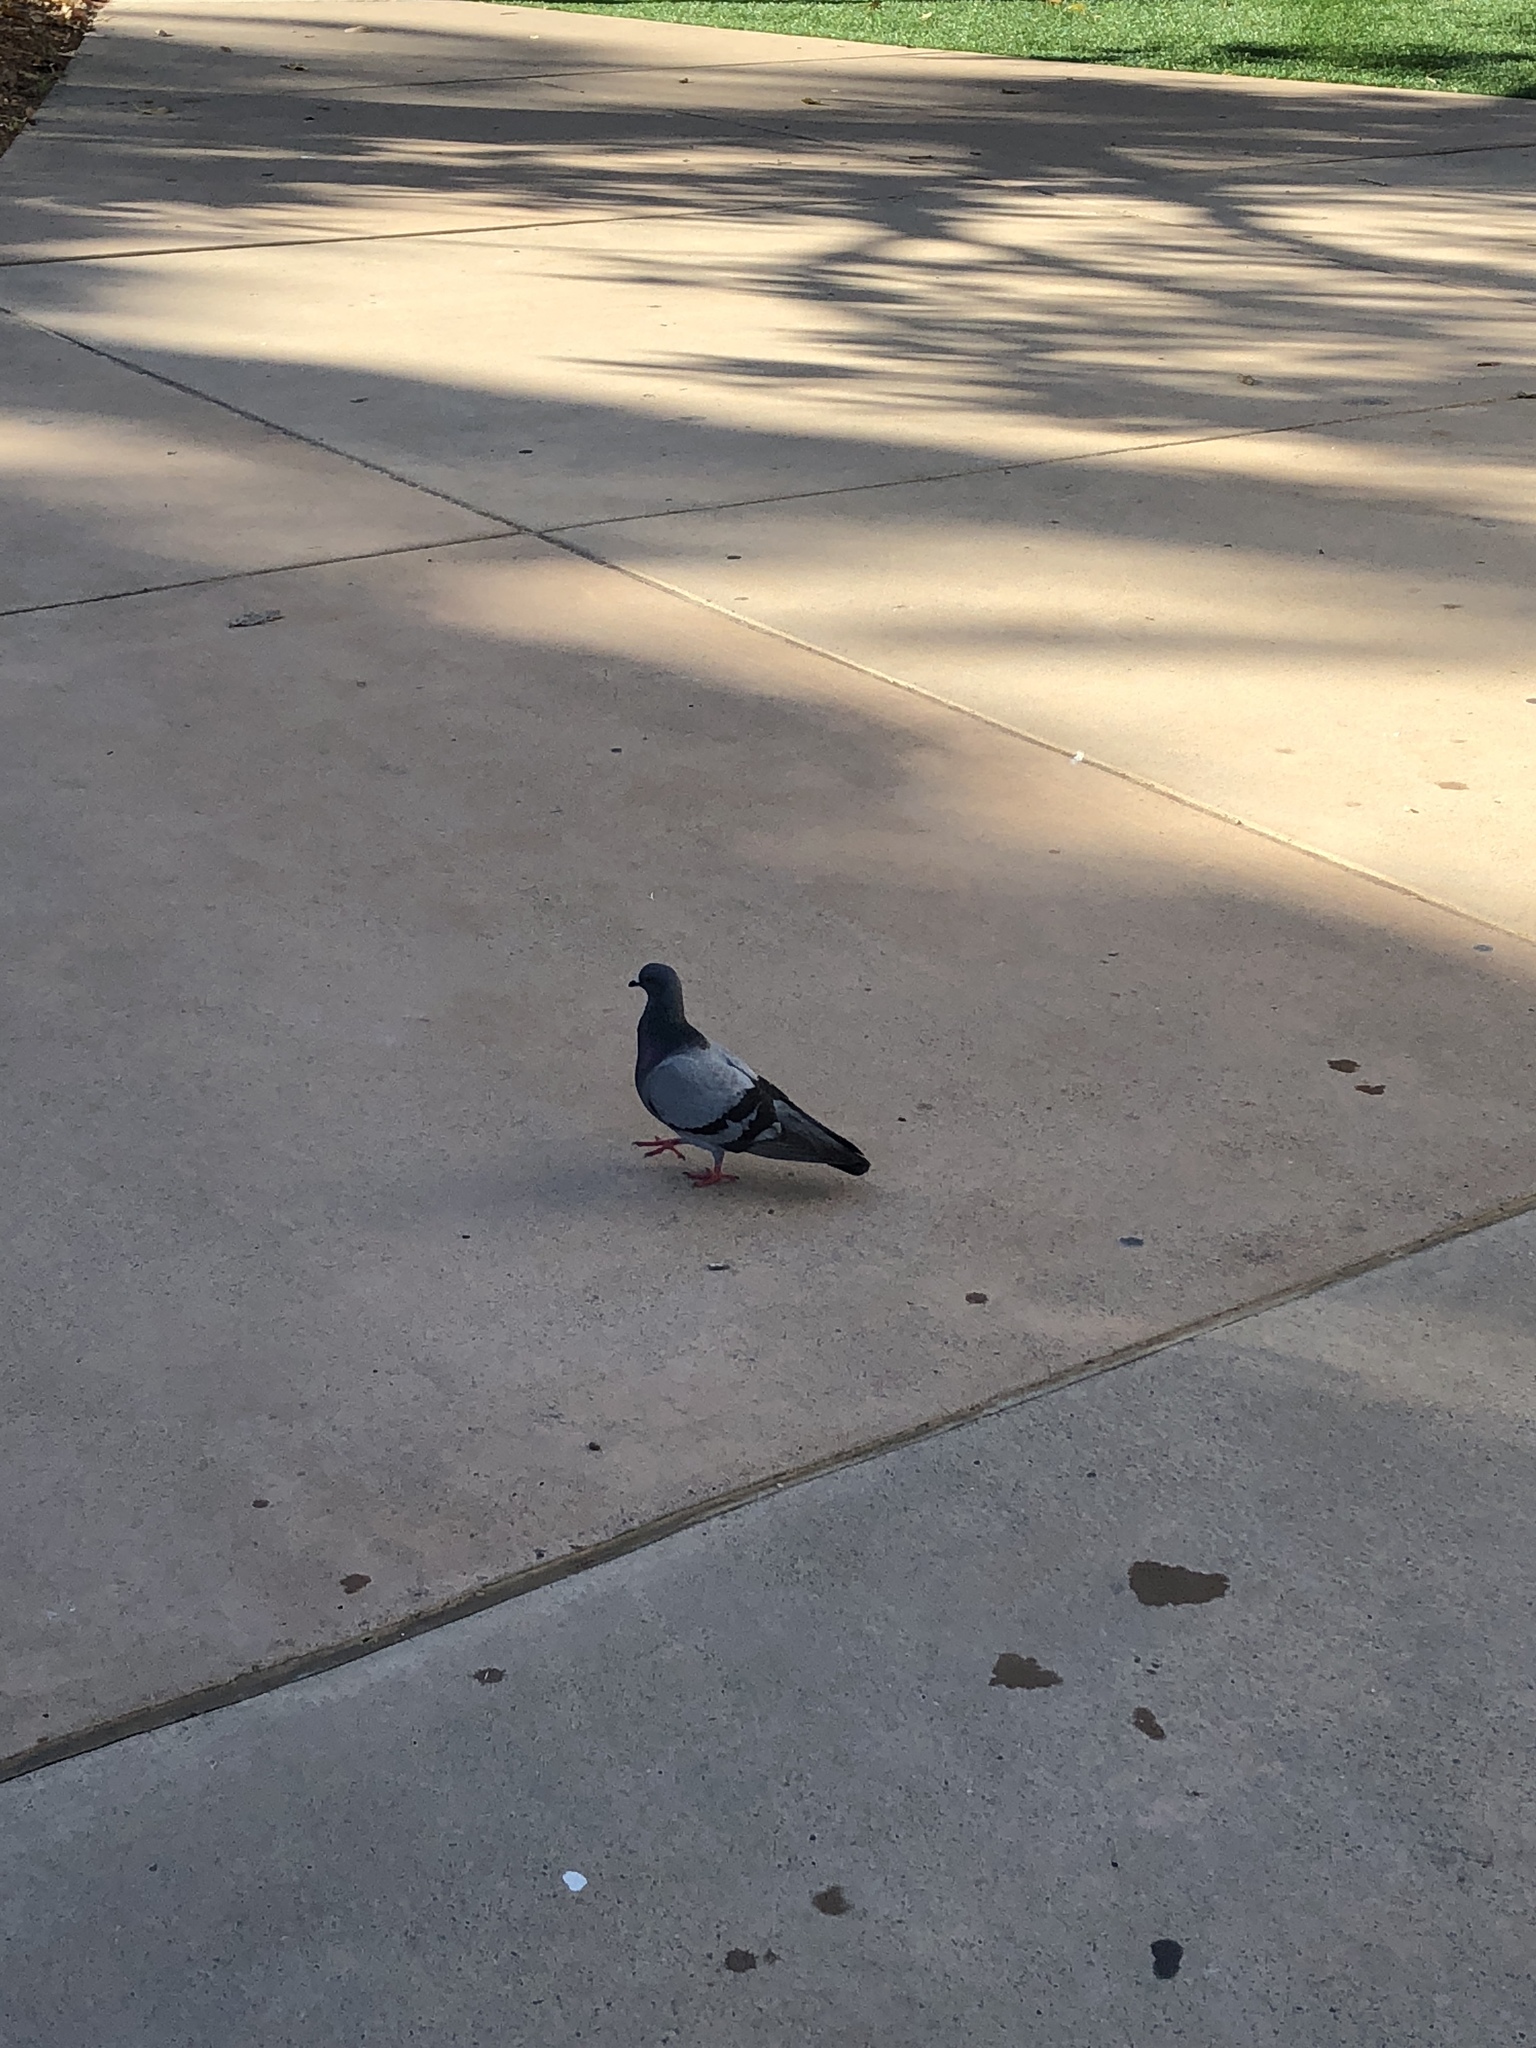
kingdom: Animalia
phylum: Chordata
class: Aves
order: Columbiformes
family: Columbidae
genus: Columba
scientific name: Columba livia
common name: Rock pigeon
